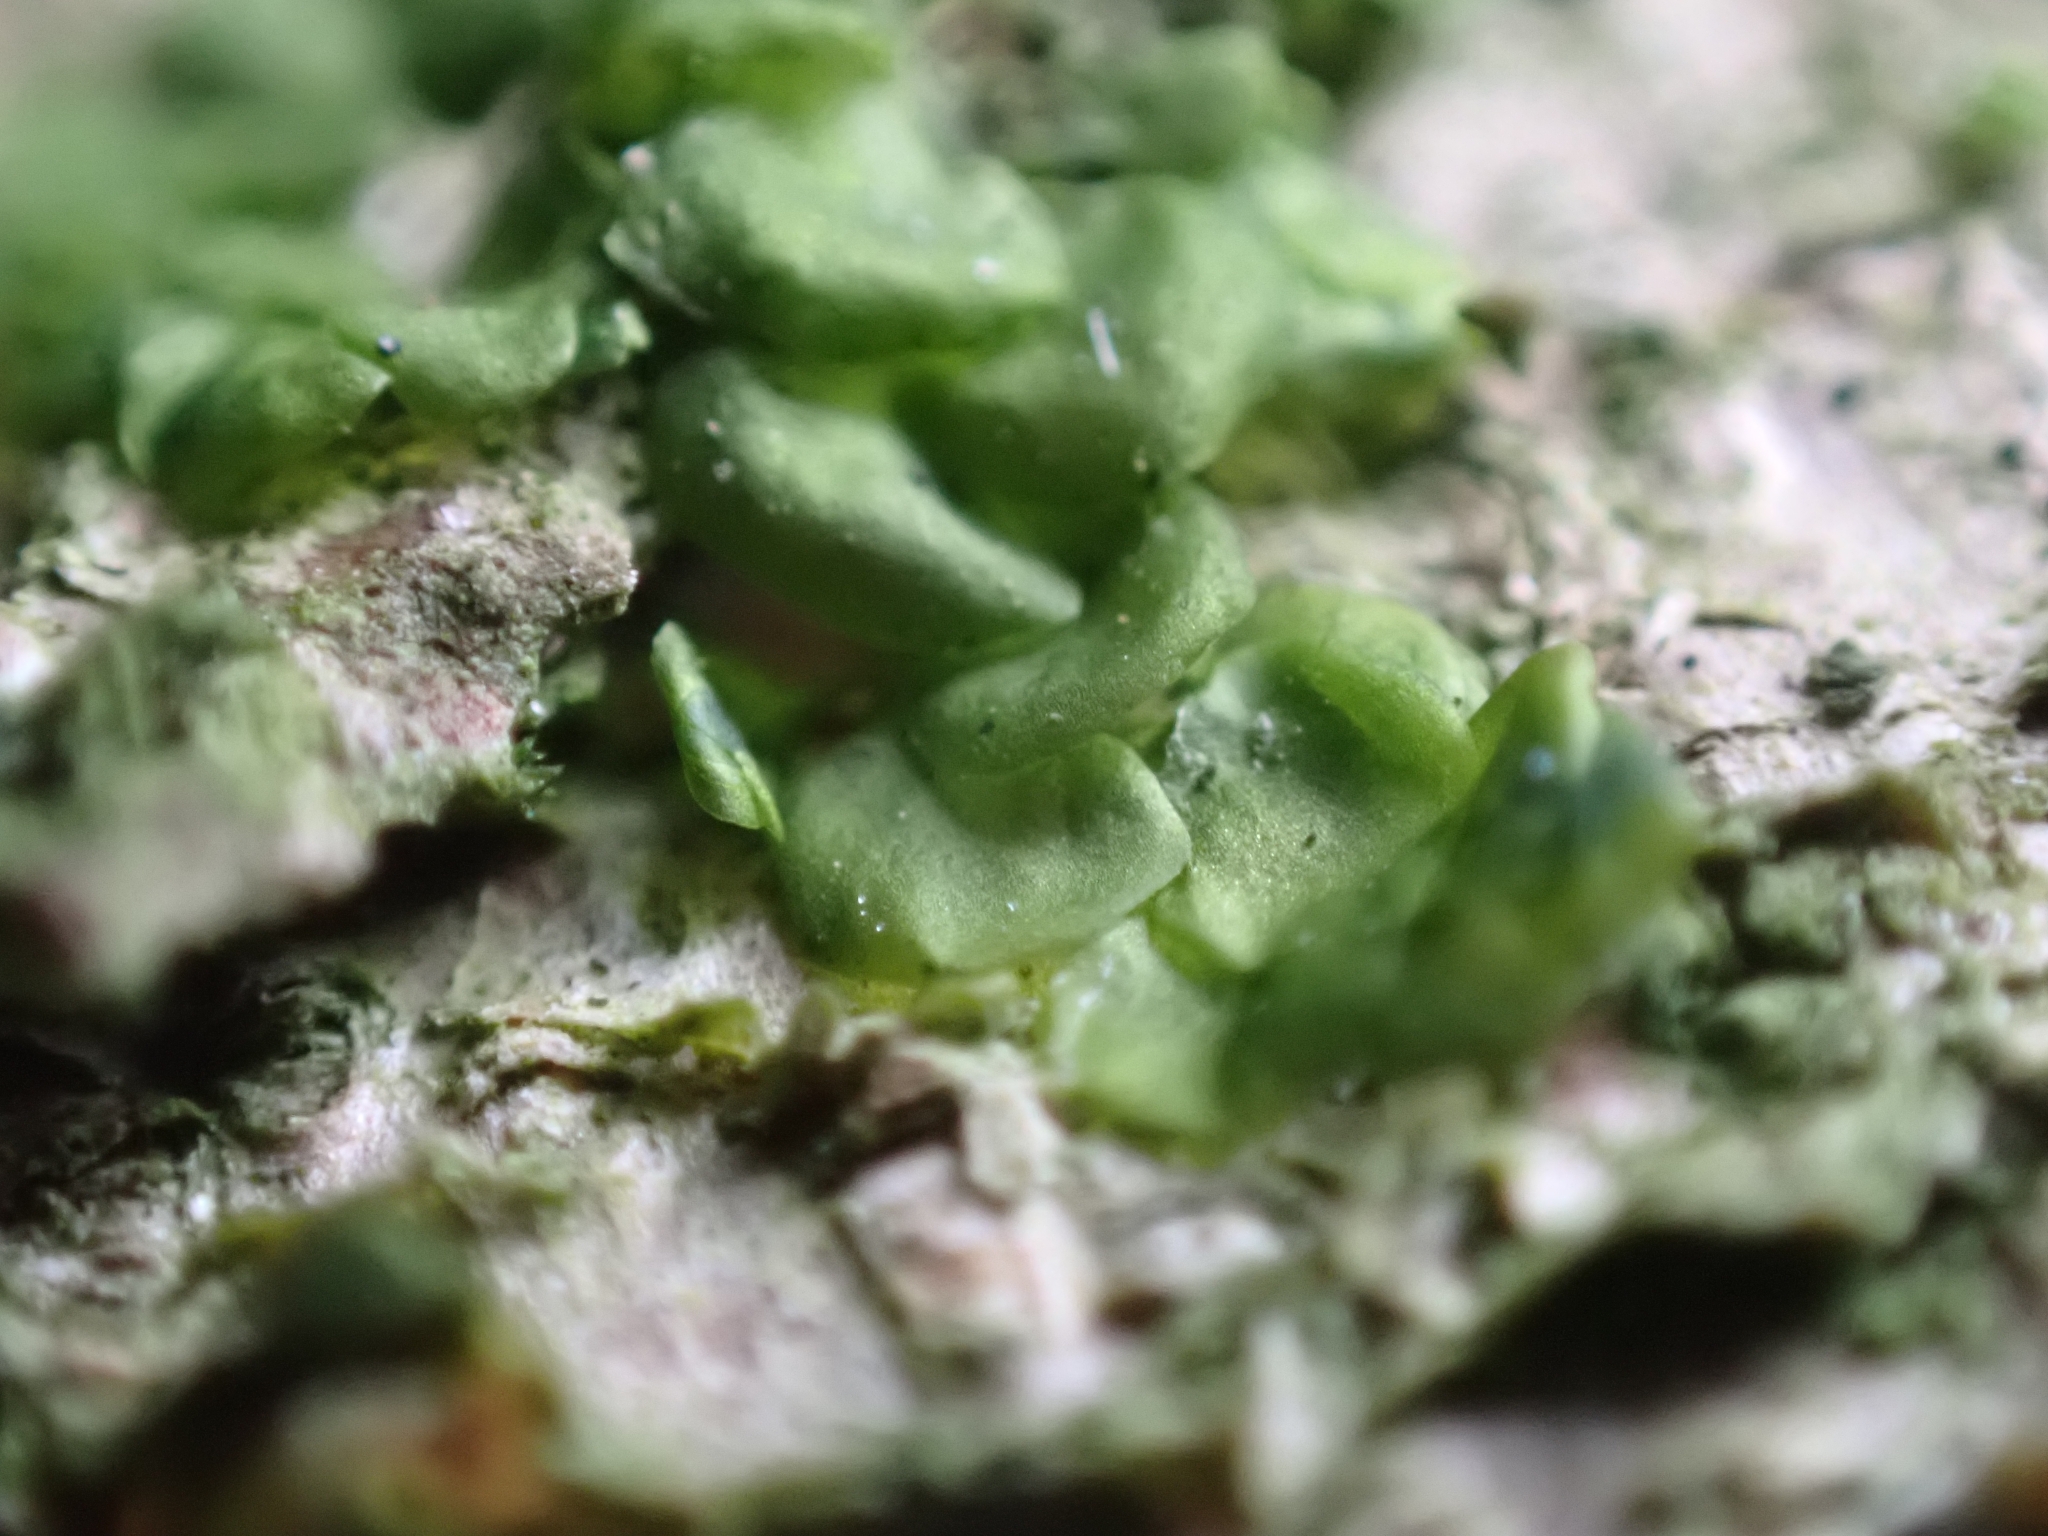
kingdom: Plantae
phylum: Marchantiophyta
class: Jungermanniopsida
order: Porellales
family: Radulaceae
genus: Radula
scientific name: Radula complanata
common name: Flat-leaved scalewort
